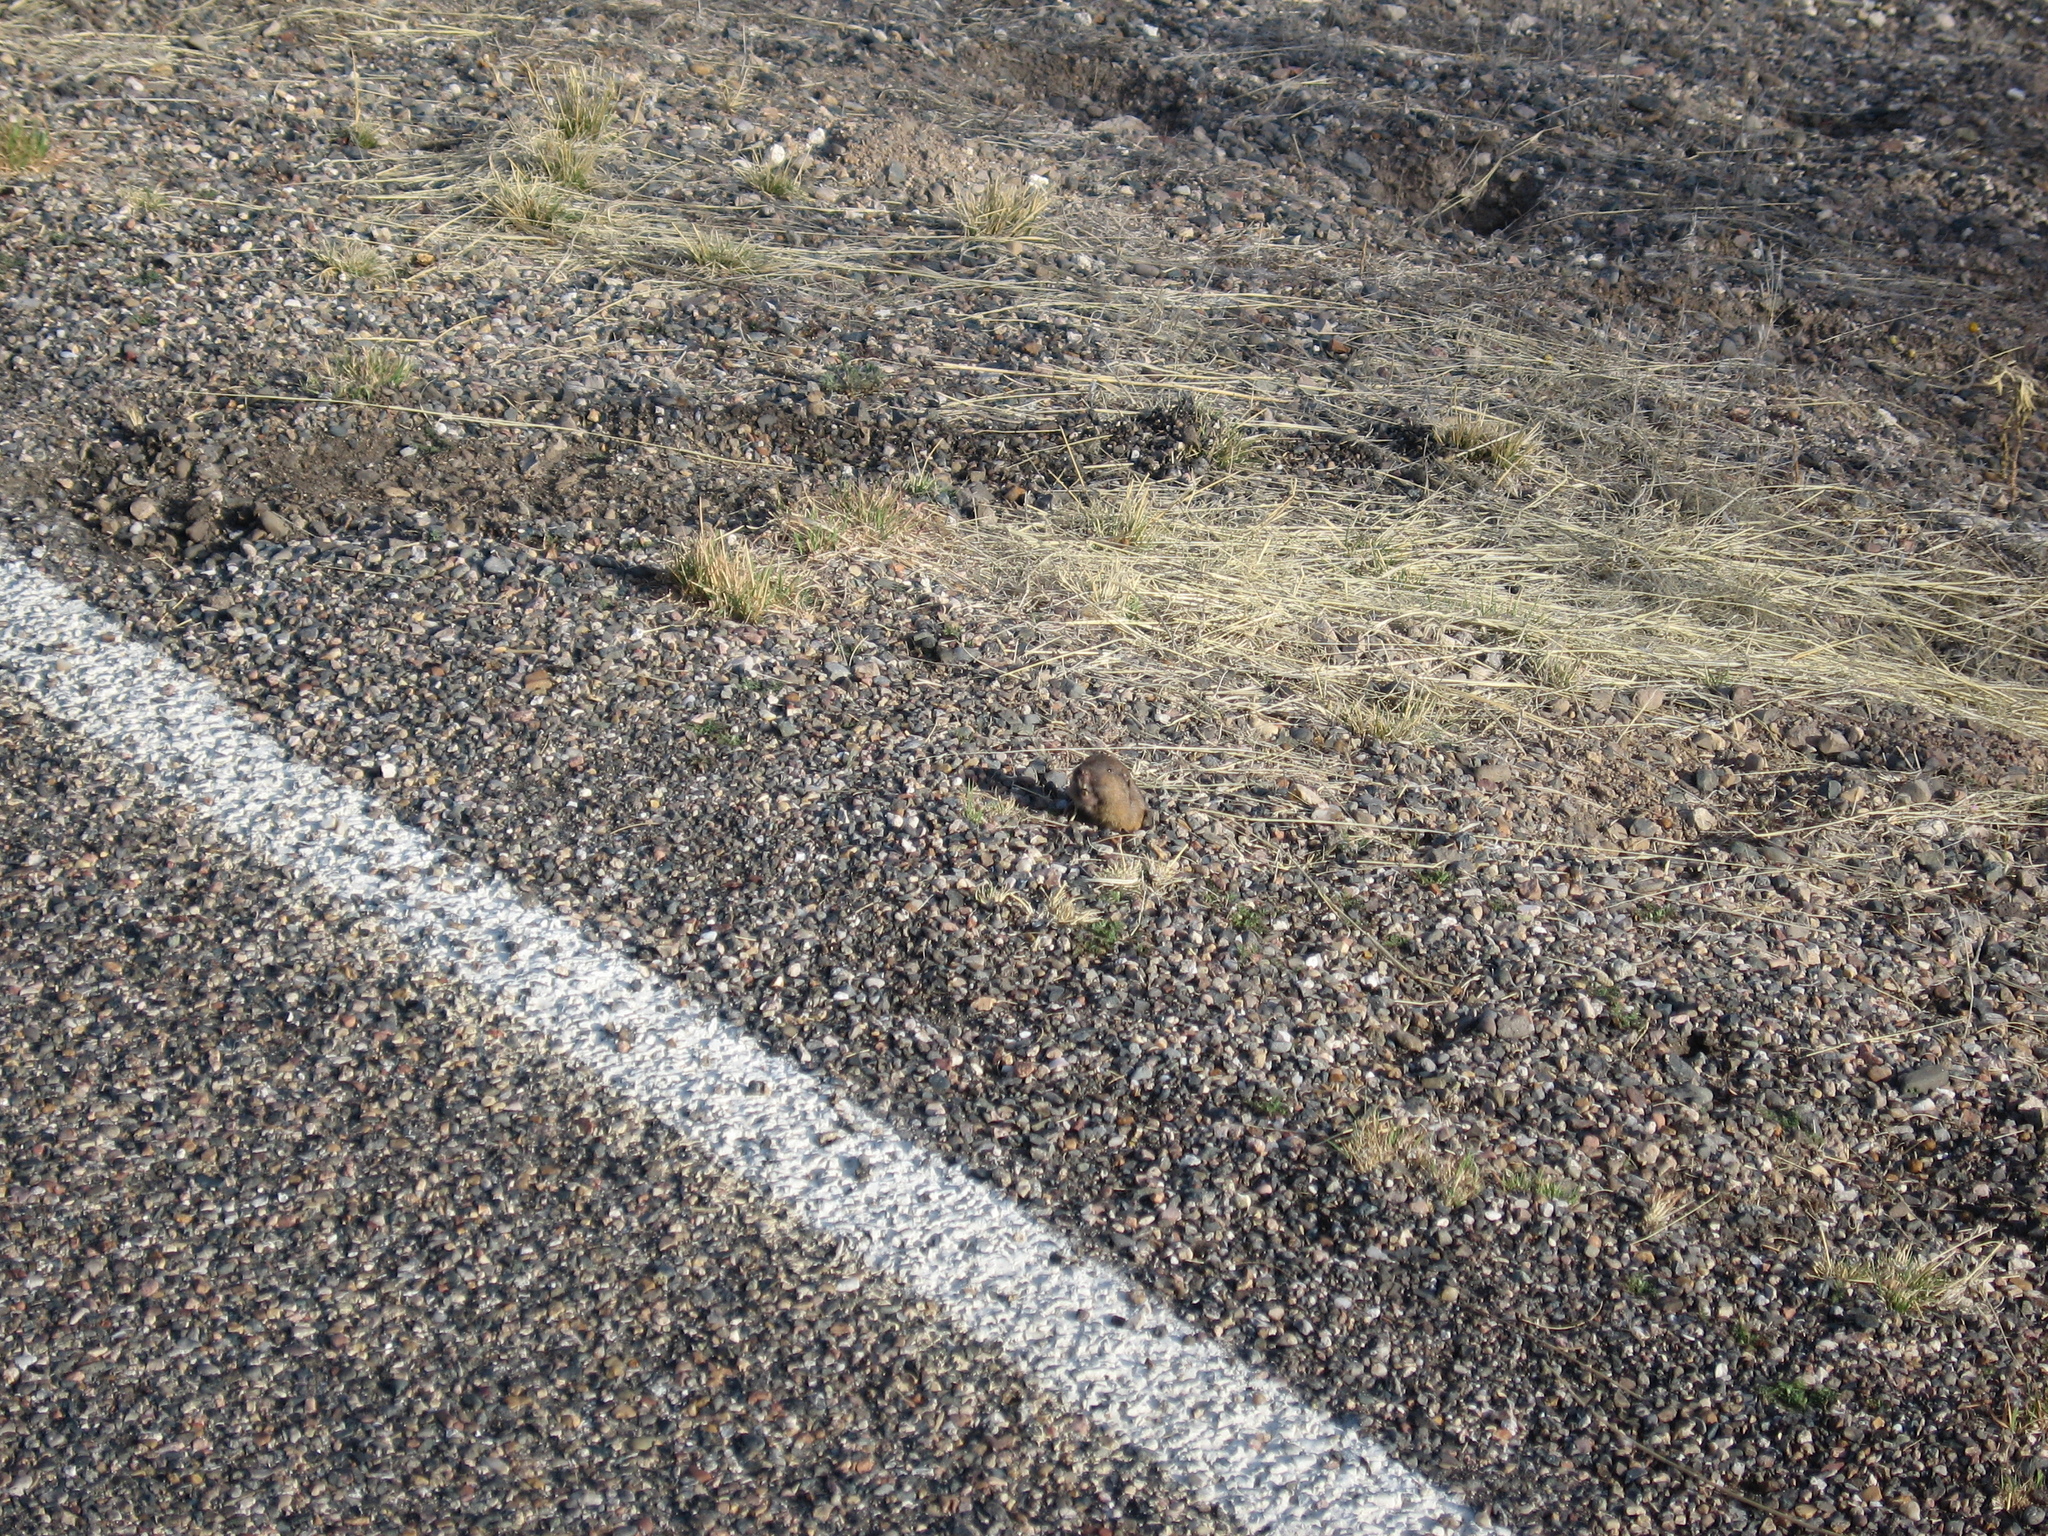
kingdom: Animalia
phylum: Chordata
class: Mammalia
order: Rodentia
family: Geomyidae
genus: Thomomys
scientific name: Thomomys bottae
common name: Botta's pocket gopher
